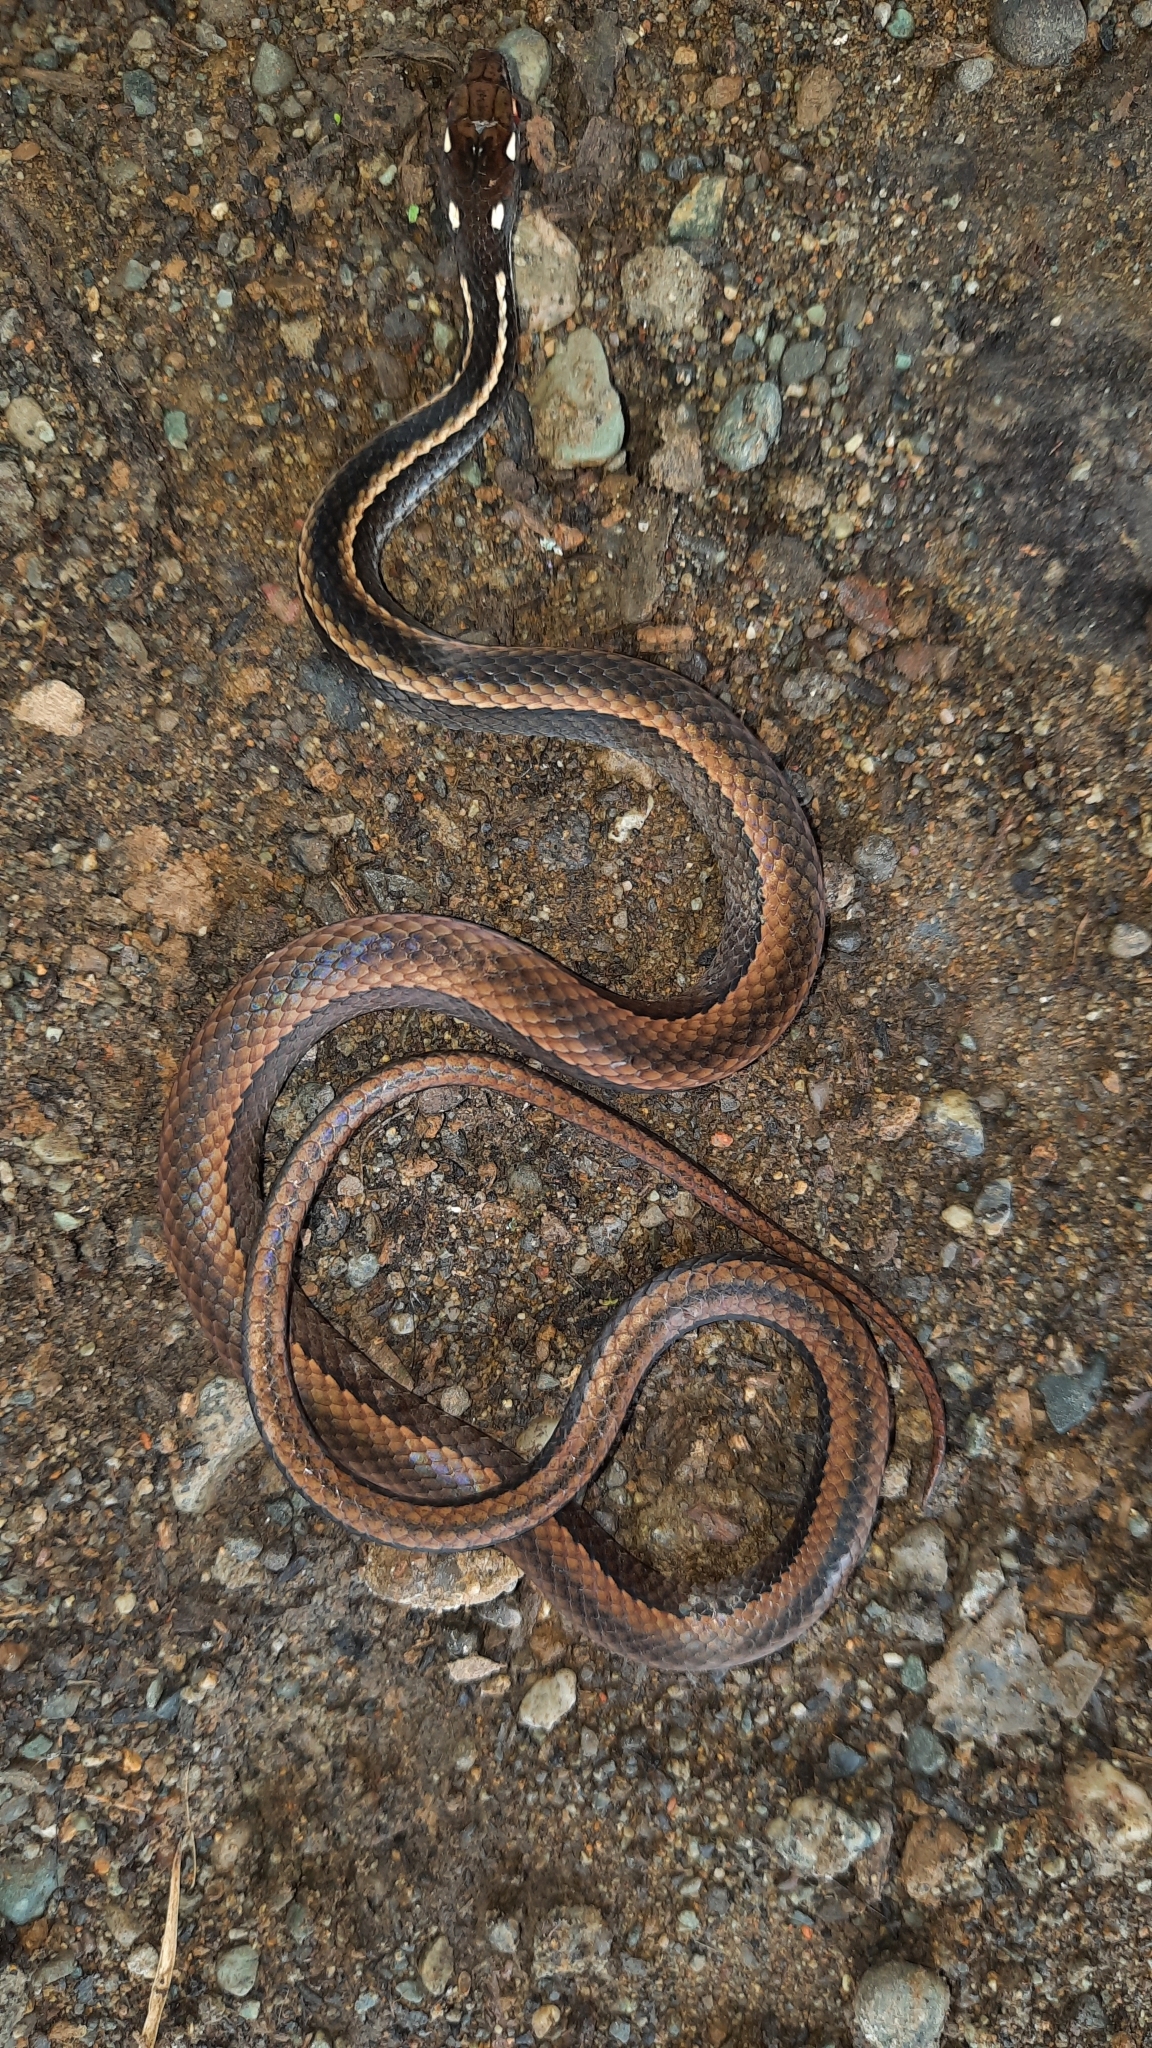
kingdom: Animalia
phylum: Chordata
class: Squamata
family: Colubridae
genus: Rhadinaea
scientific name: Rhadinaea decorata
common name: Adorned graceful brown snake
